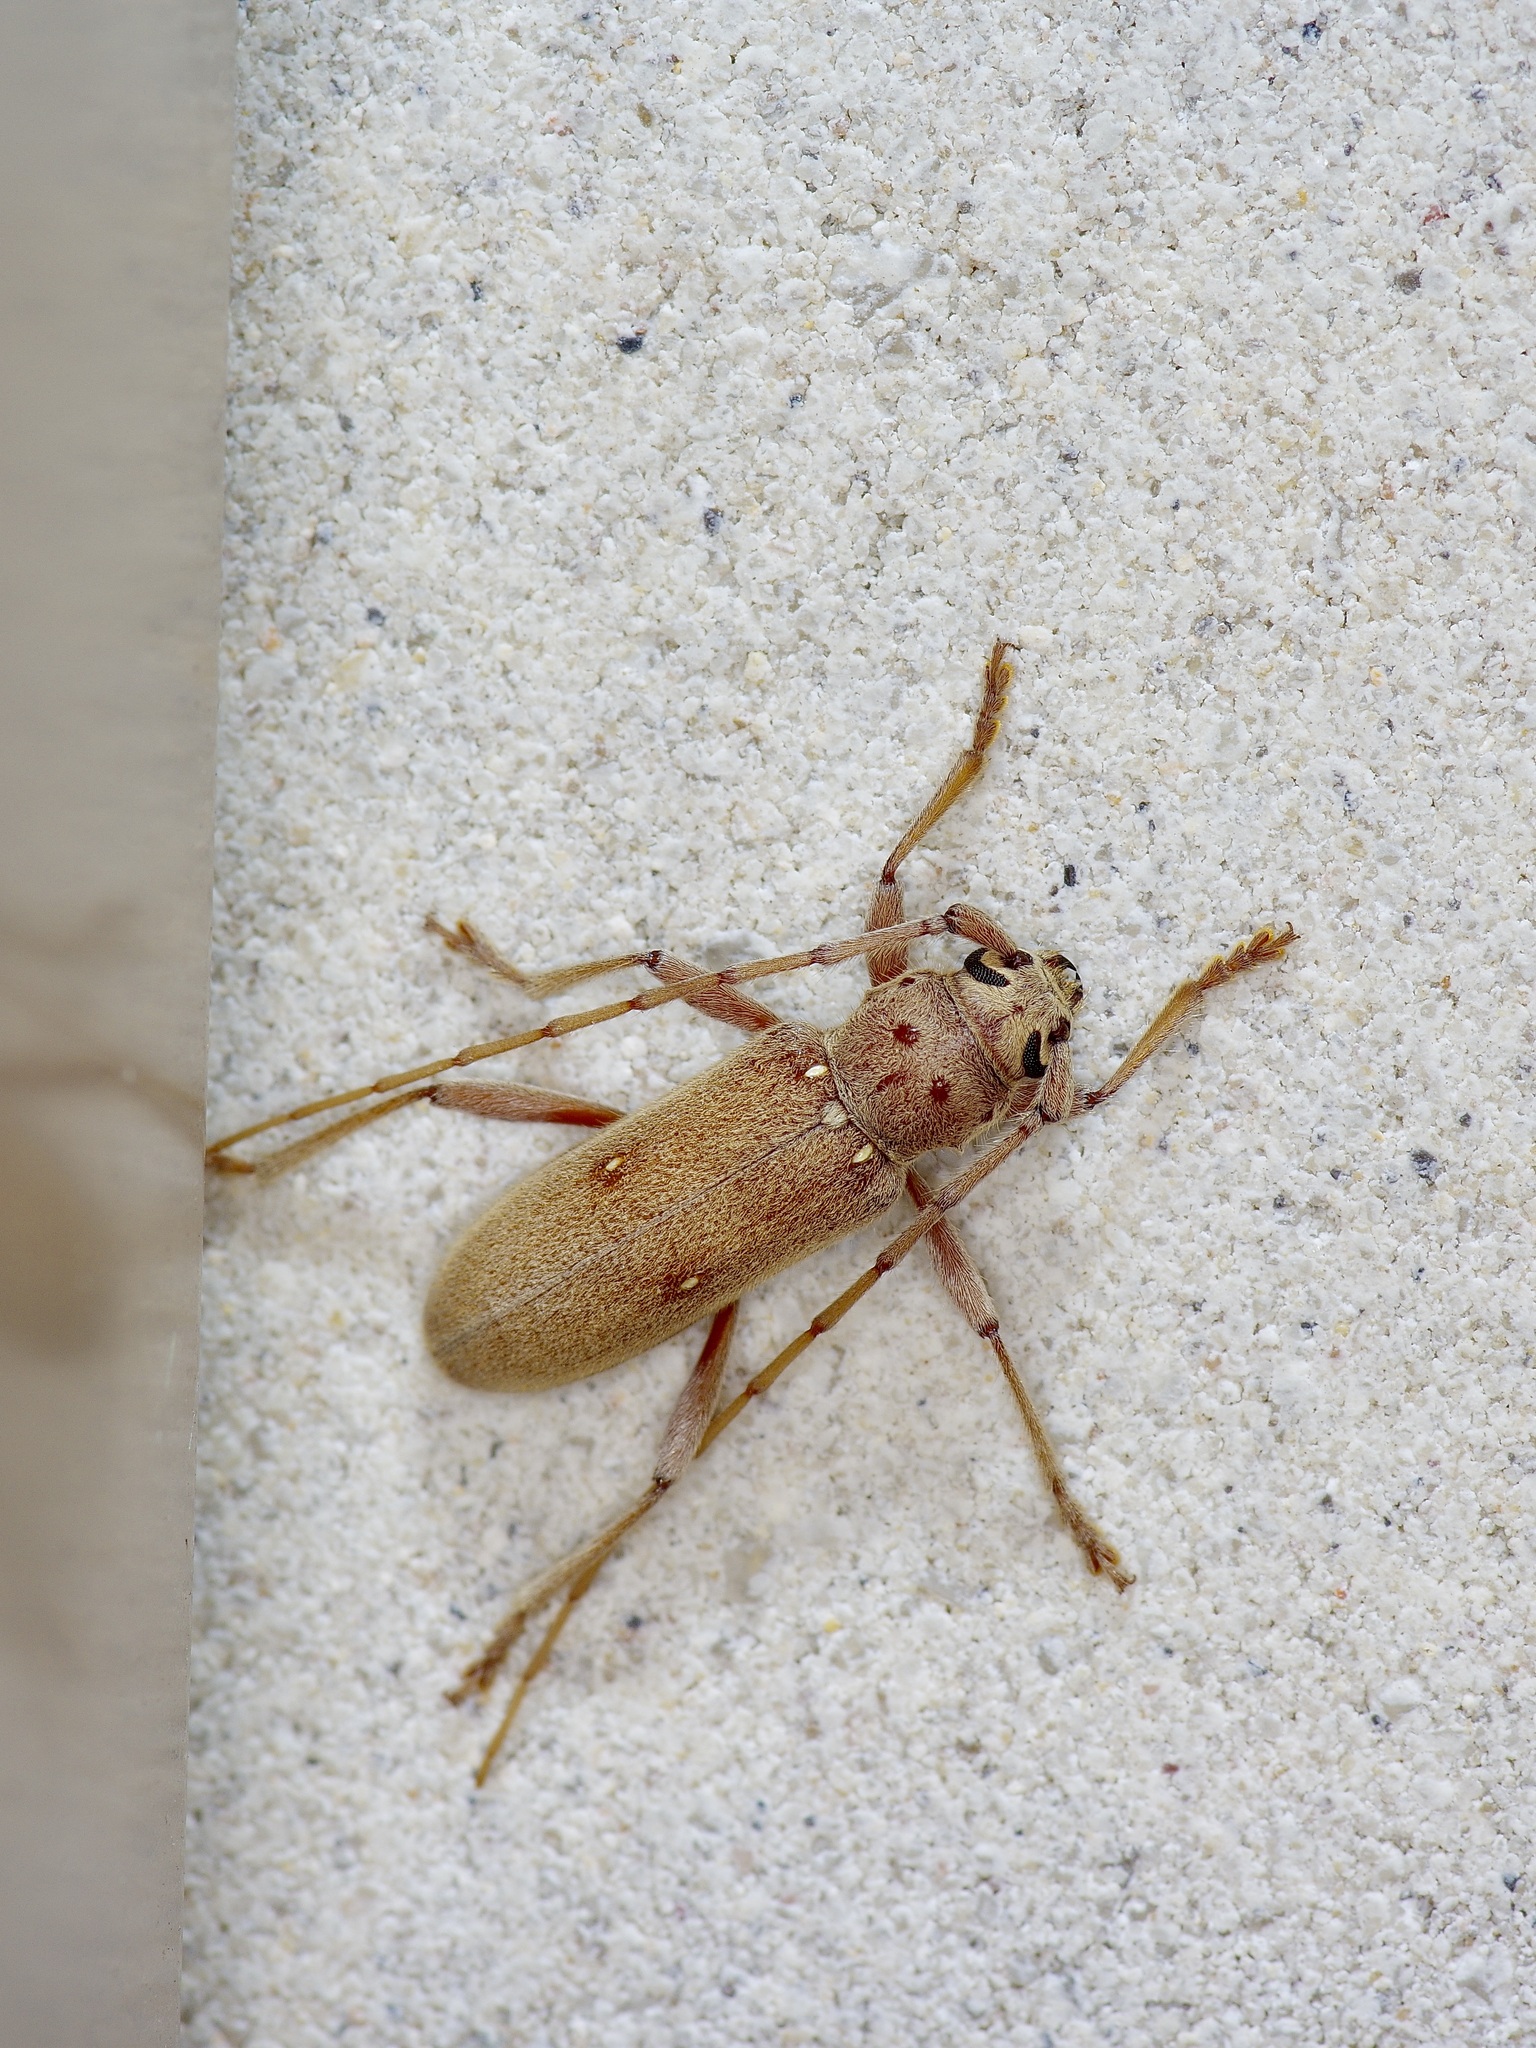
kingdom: Animalia
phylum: Arthropoda
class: Insecta
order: Coleoptera
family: Cerambycidae
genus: Eburia
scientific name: Eburia mutica
